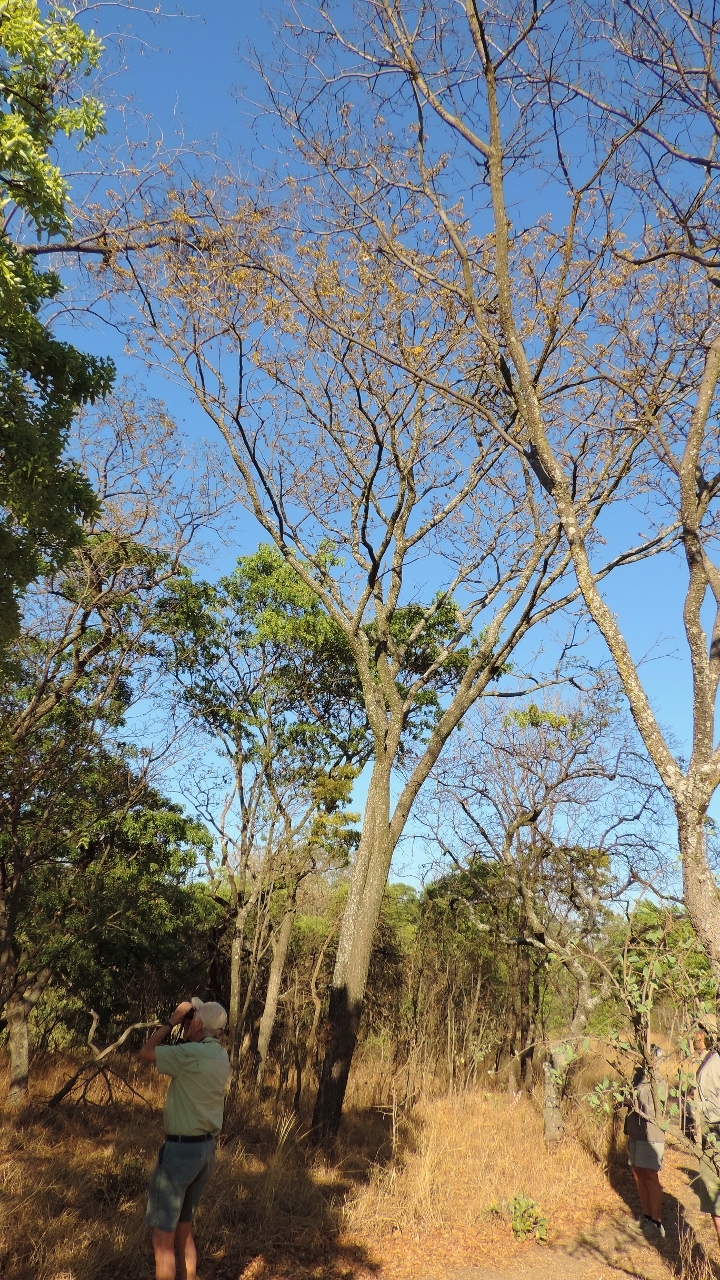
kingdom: Plantae
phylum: Tracheophyta
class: Magnoliopsida
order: Fabales
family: Fabaceae
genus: Pterocarpus
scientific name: Pterocarpus angolensis
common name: Bloodwood tree
